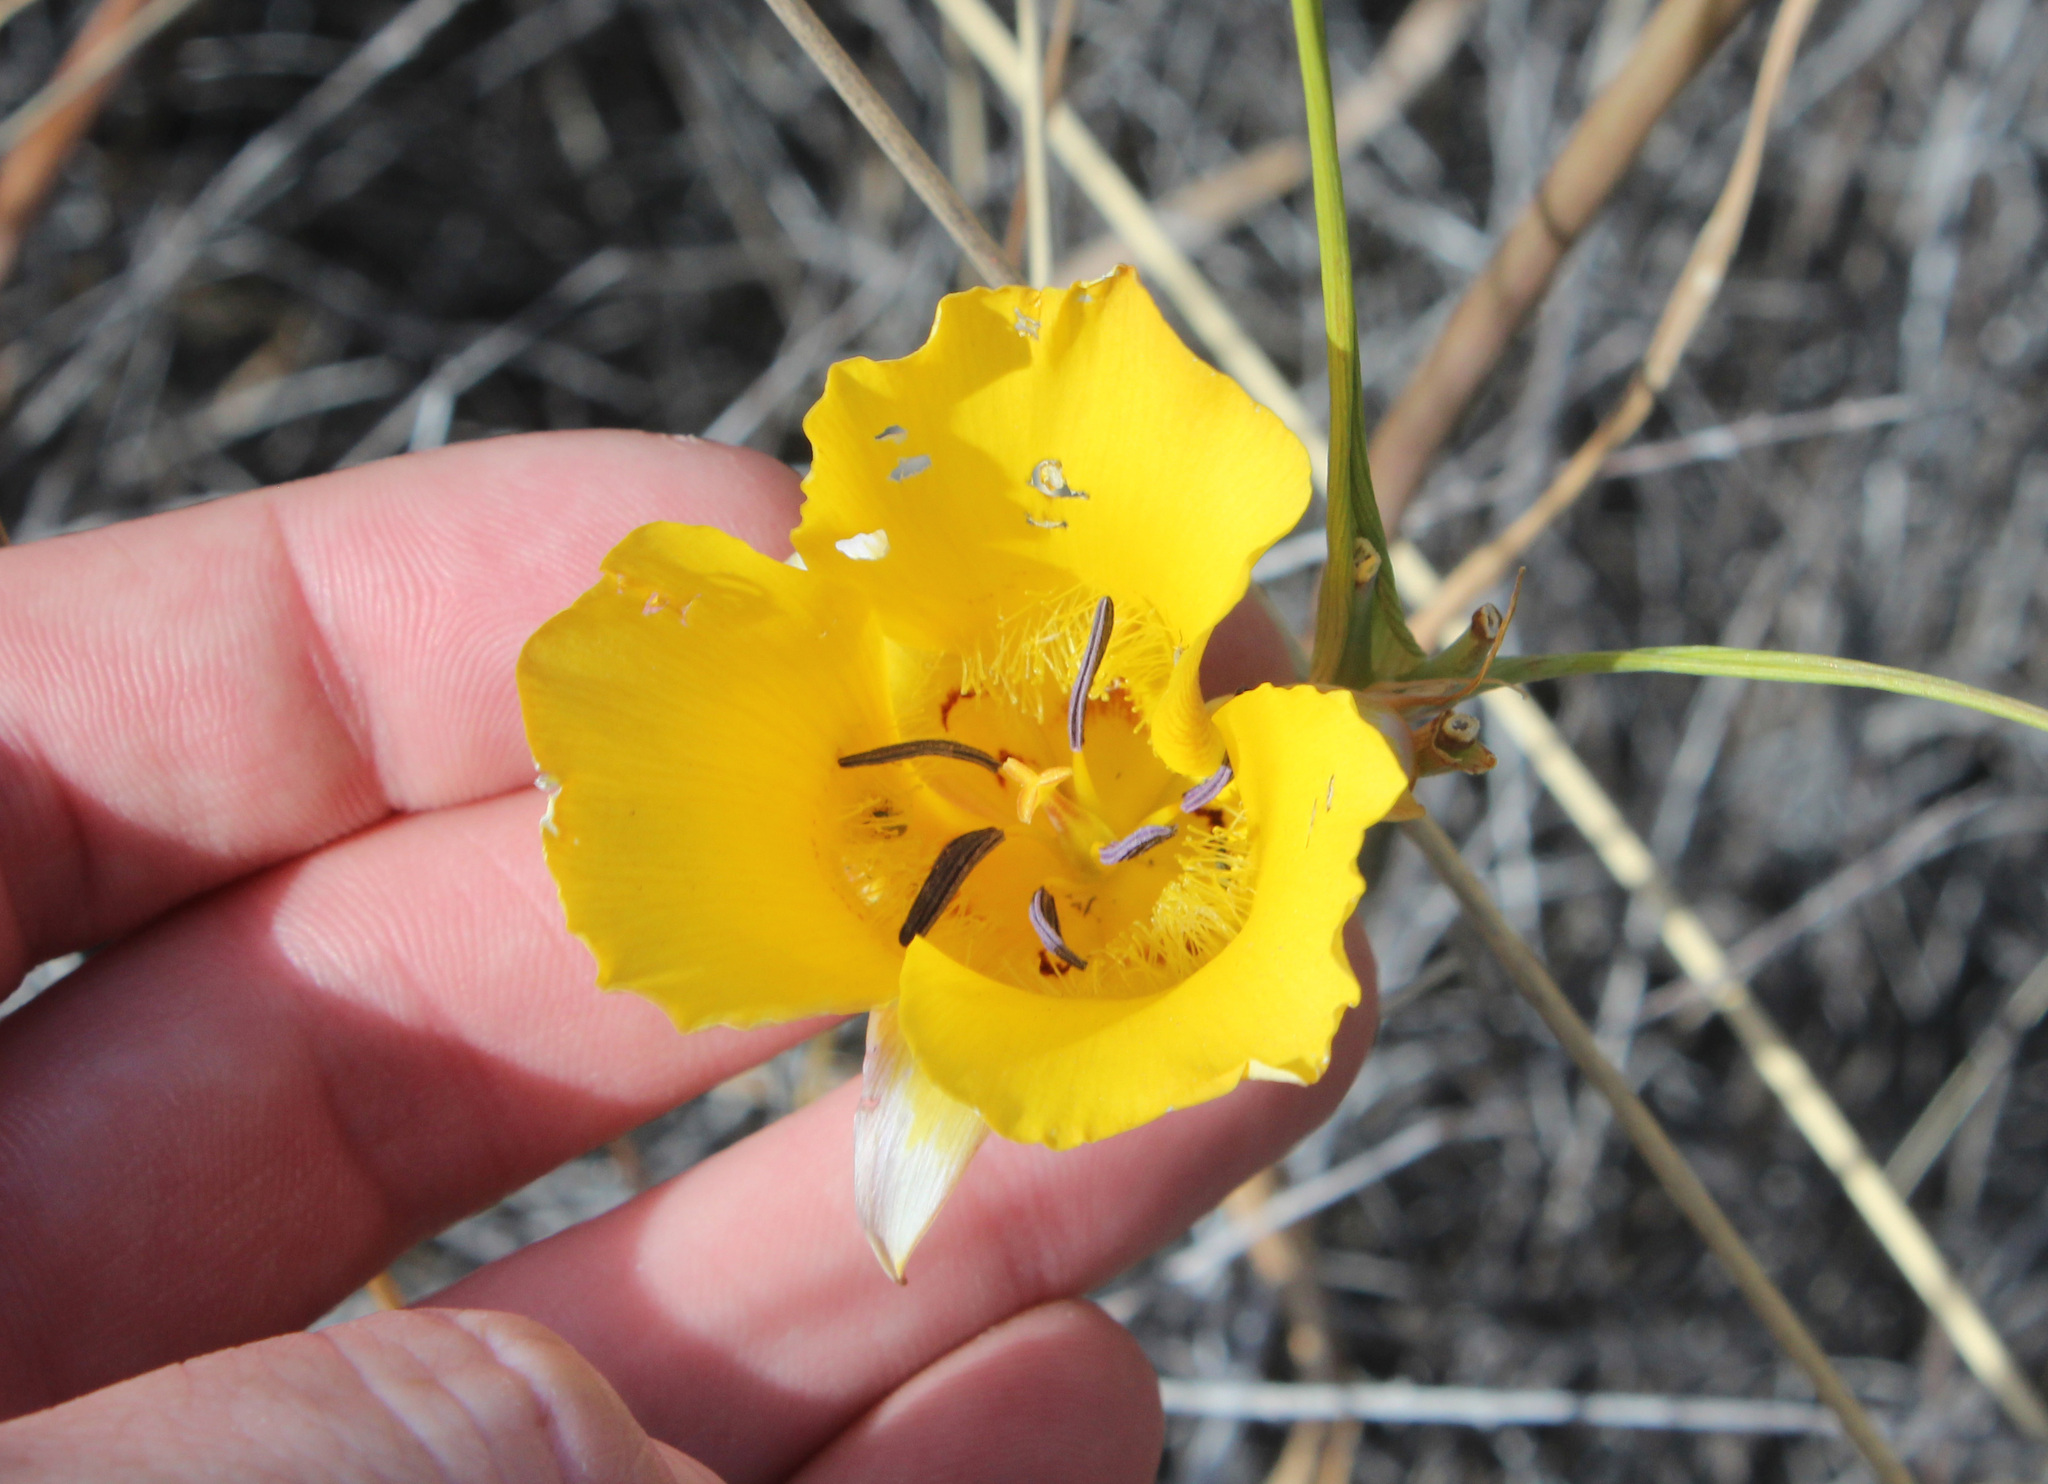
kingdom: Plantae
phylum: Tracheophyta
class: Liliopsida
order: Liliales
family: Liliaceae
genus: Calochortus
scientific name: Calochortus clavatus
